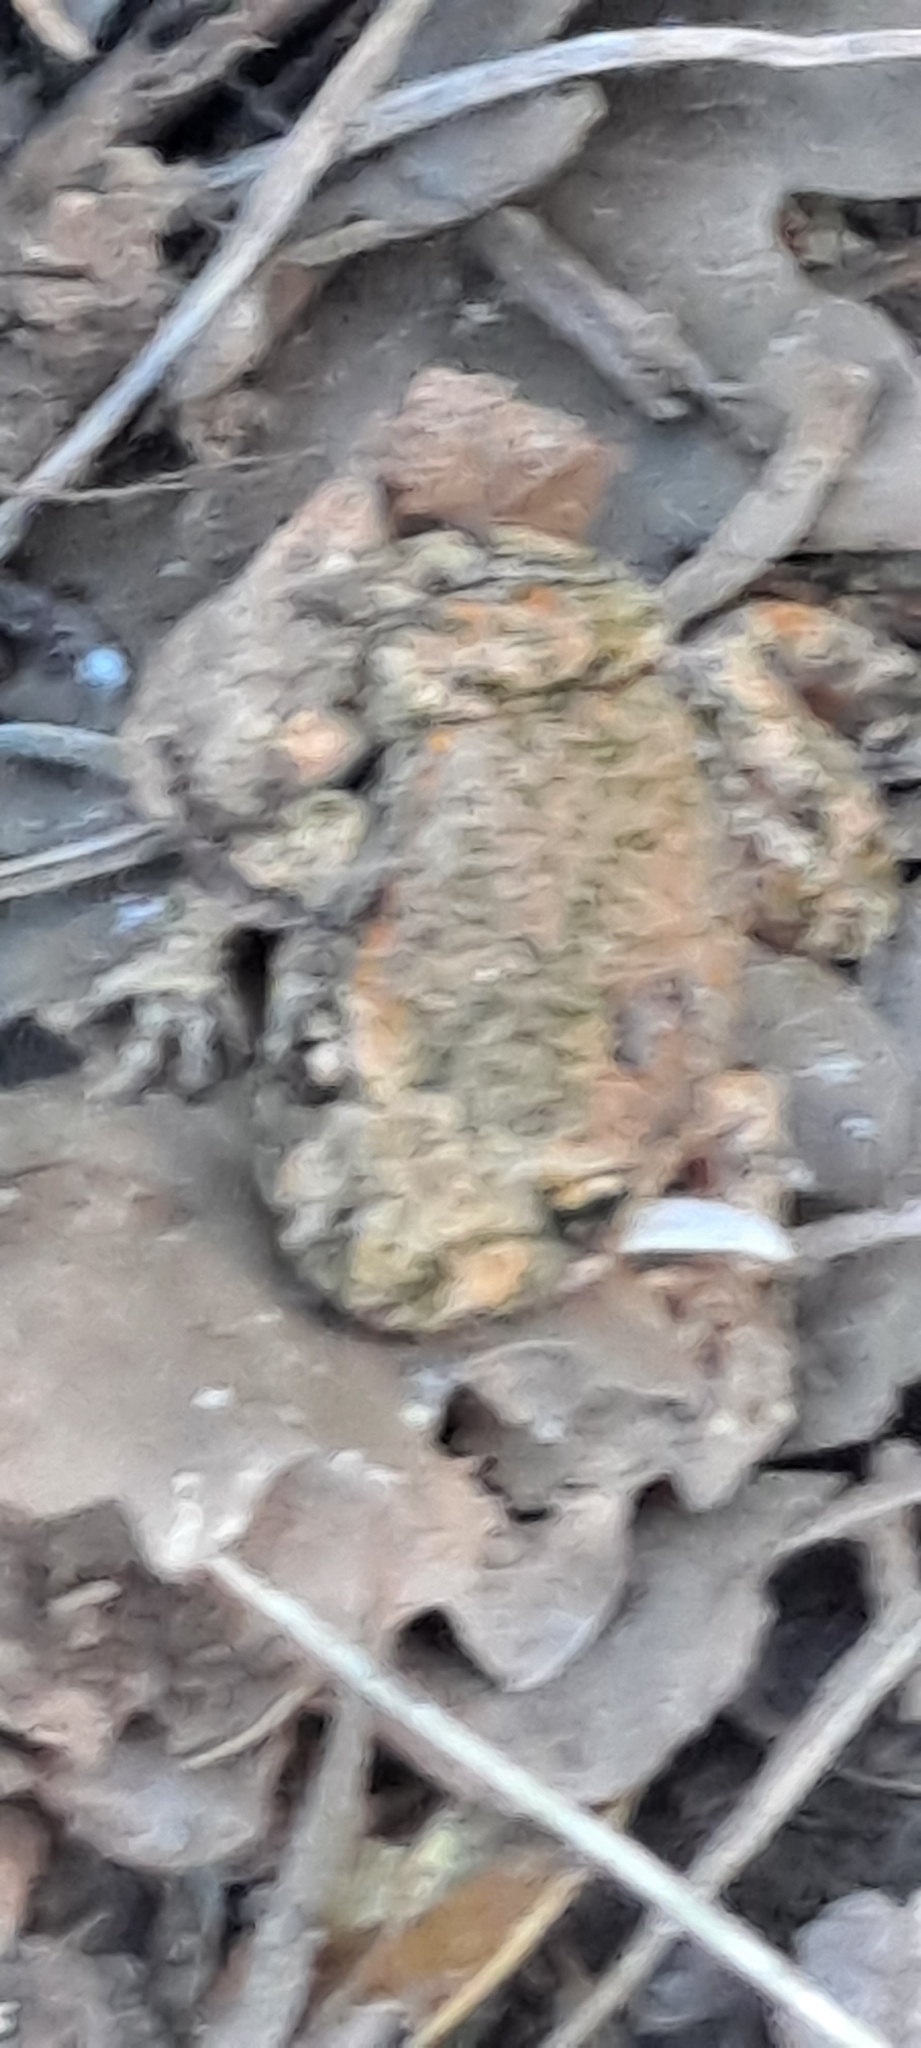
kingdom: Animalia
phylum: Chordata
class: Amphibia
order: Anura
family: Alytidae
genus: Alytes
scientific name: Alytes obstetricans
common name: Midwife toad
